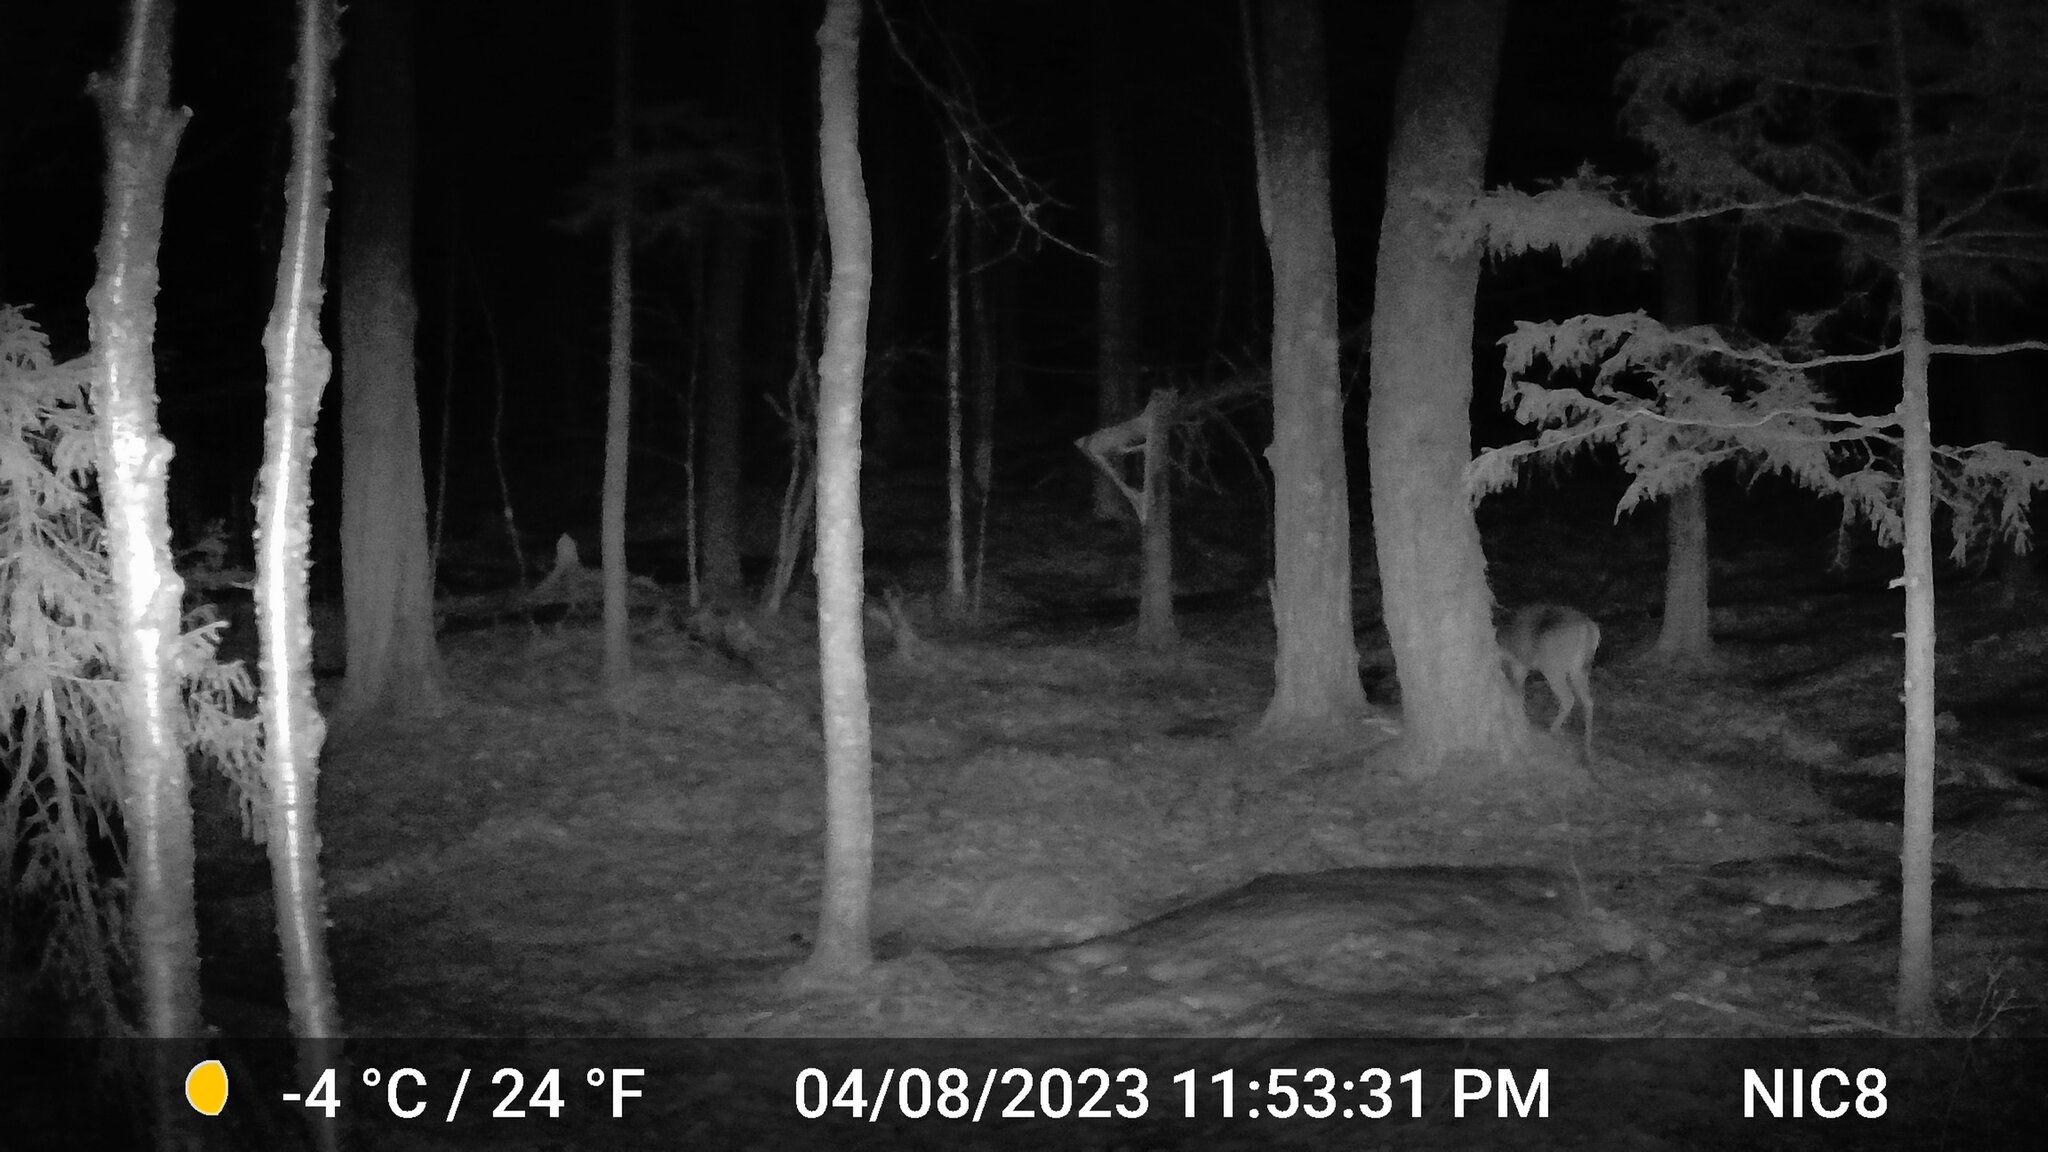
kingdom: Animalia
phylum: Chordata
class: Mammalia
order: Artiodactyla
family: Cervidae
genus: Odocoileus
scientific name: Odocoileus virginianus
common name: White-tailed deer
